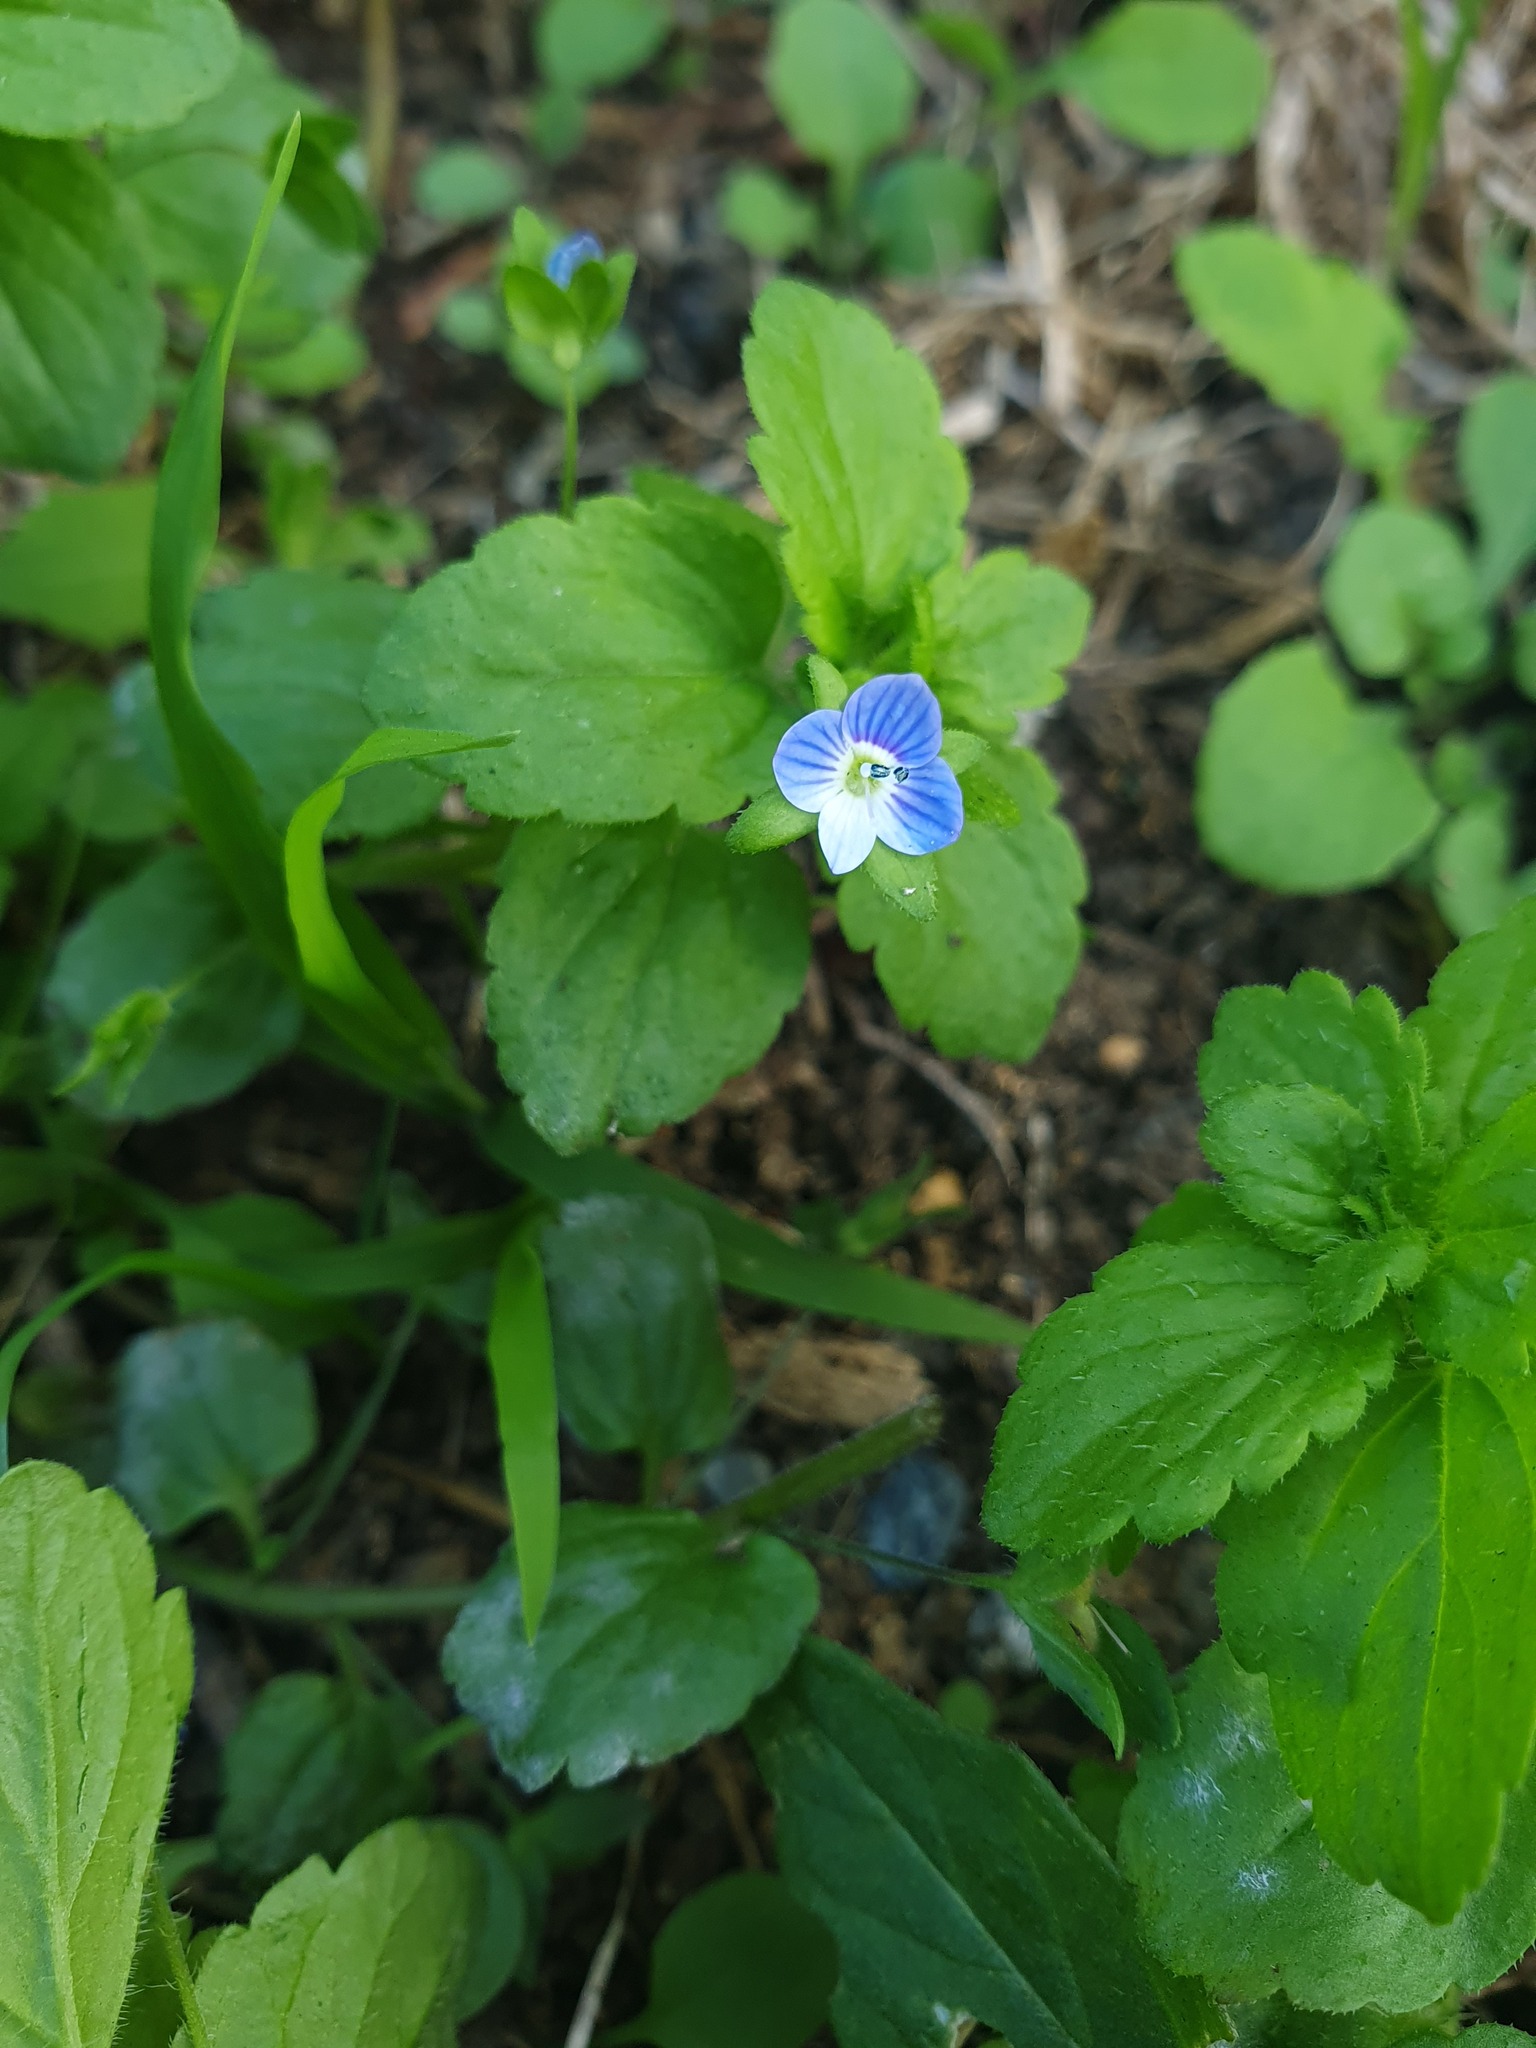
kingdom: Plantae
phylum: Tracheophyta
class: Magnoliopsida
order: Lamiales
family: Plantaginaceae
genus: Veronica
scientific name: Veronica persica
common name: Common field-speedwell
